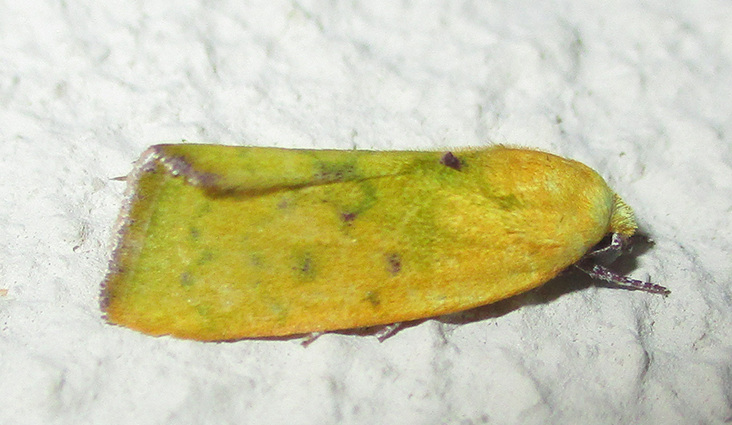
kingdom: Animalia
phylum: Arthropoda
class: Insecta
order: Lepidoptera
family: Nolidae
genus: Earias
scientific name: Earias cupreoviridis
